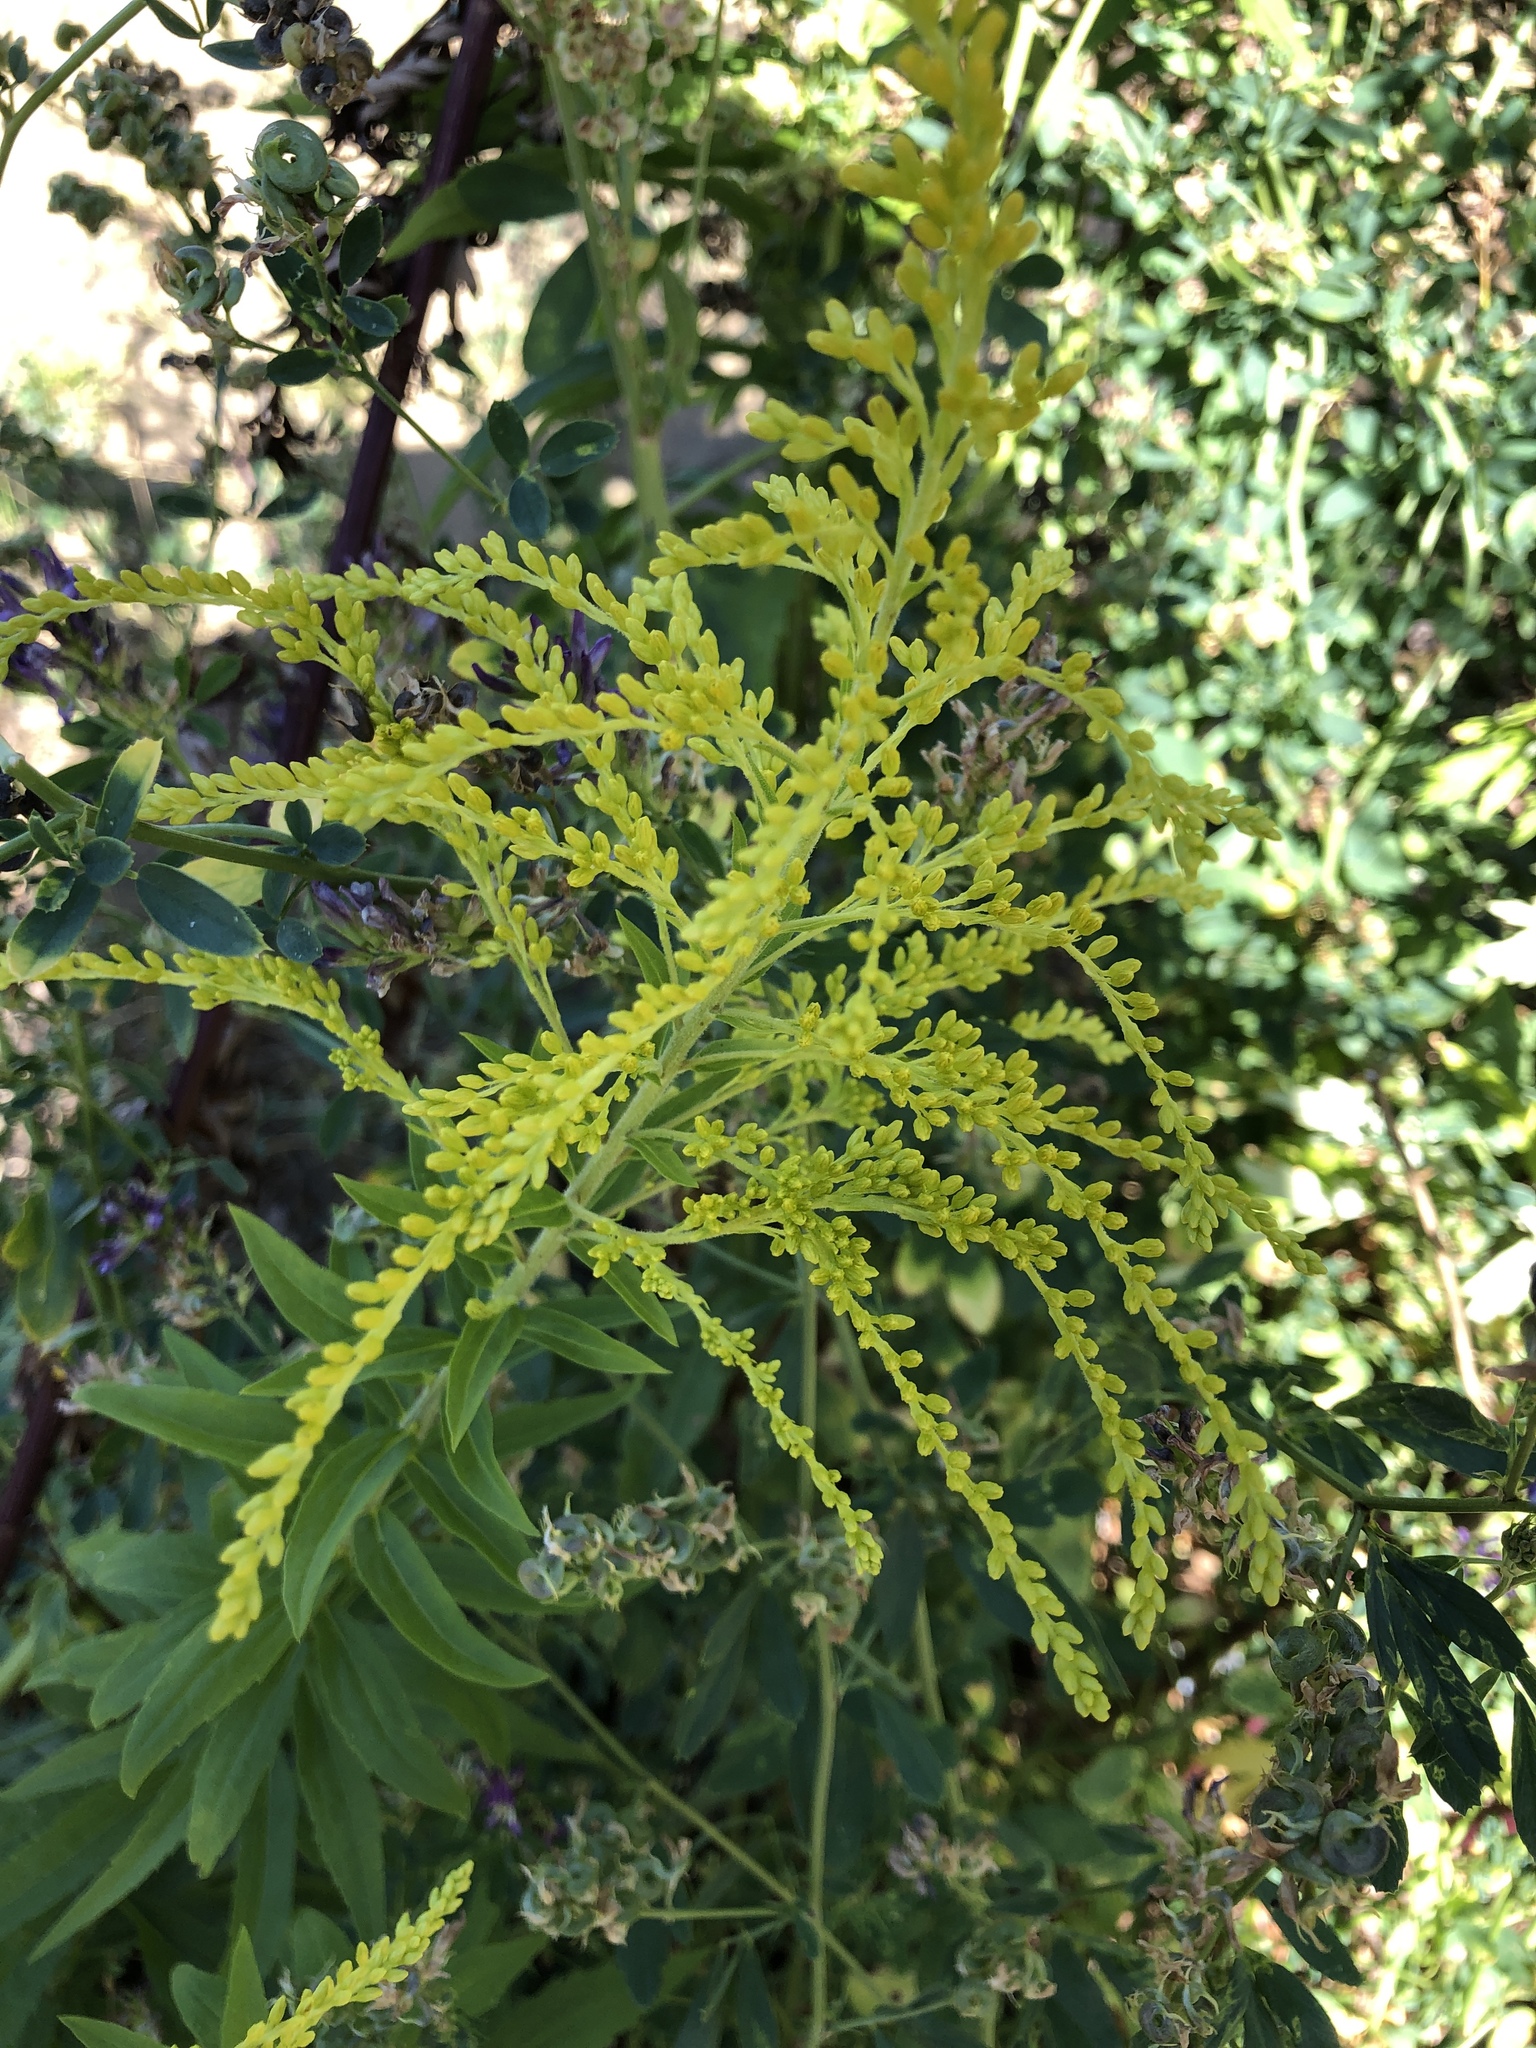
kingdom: Plantae
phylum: Tracheophyta
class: Magnoliopsida
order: Asterales
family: Asteraceae
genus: Solidago
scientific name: Solidago canadensis
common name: Canada goldenrod
